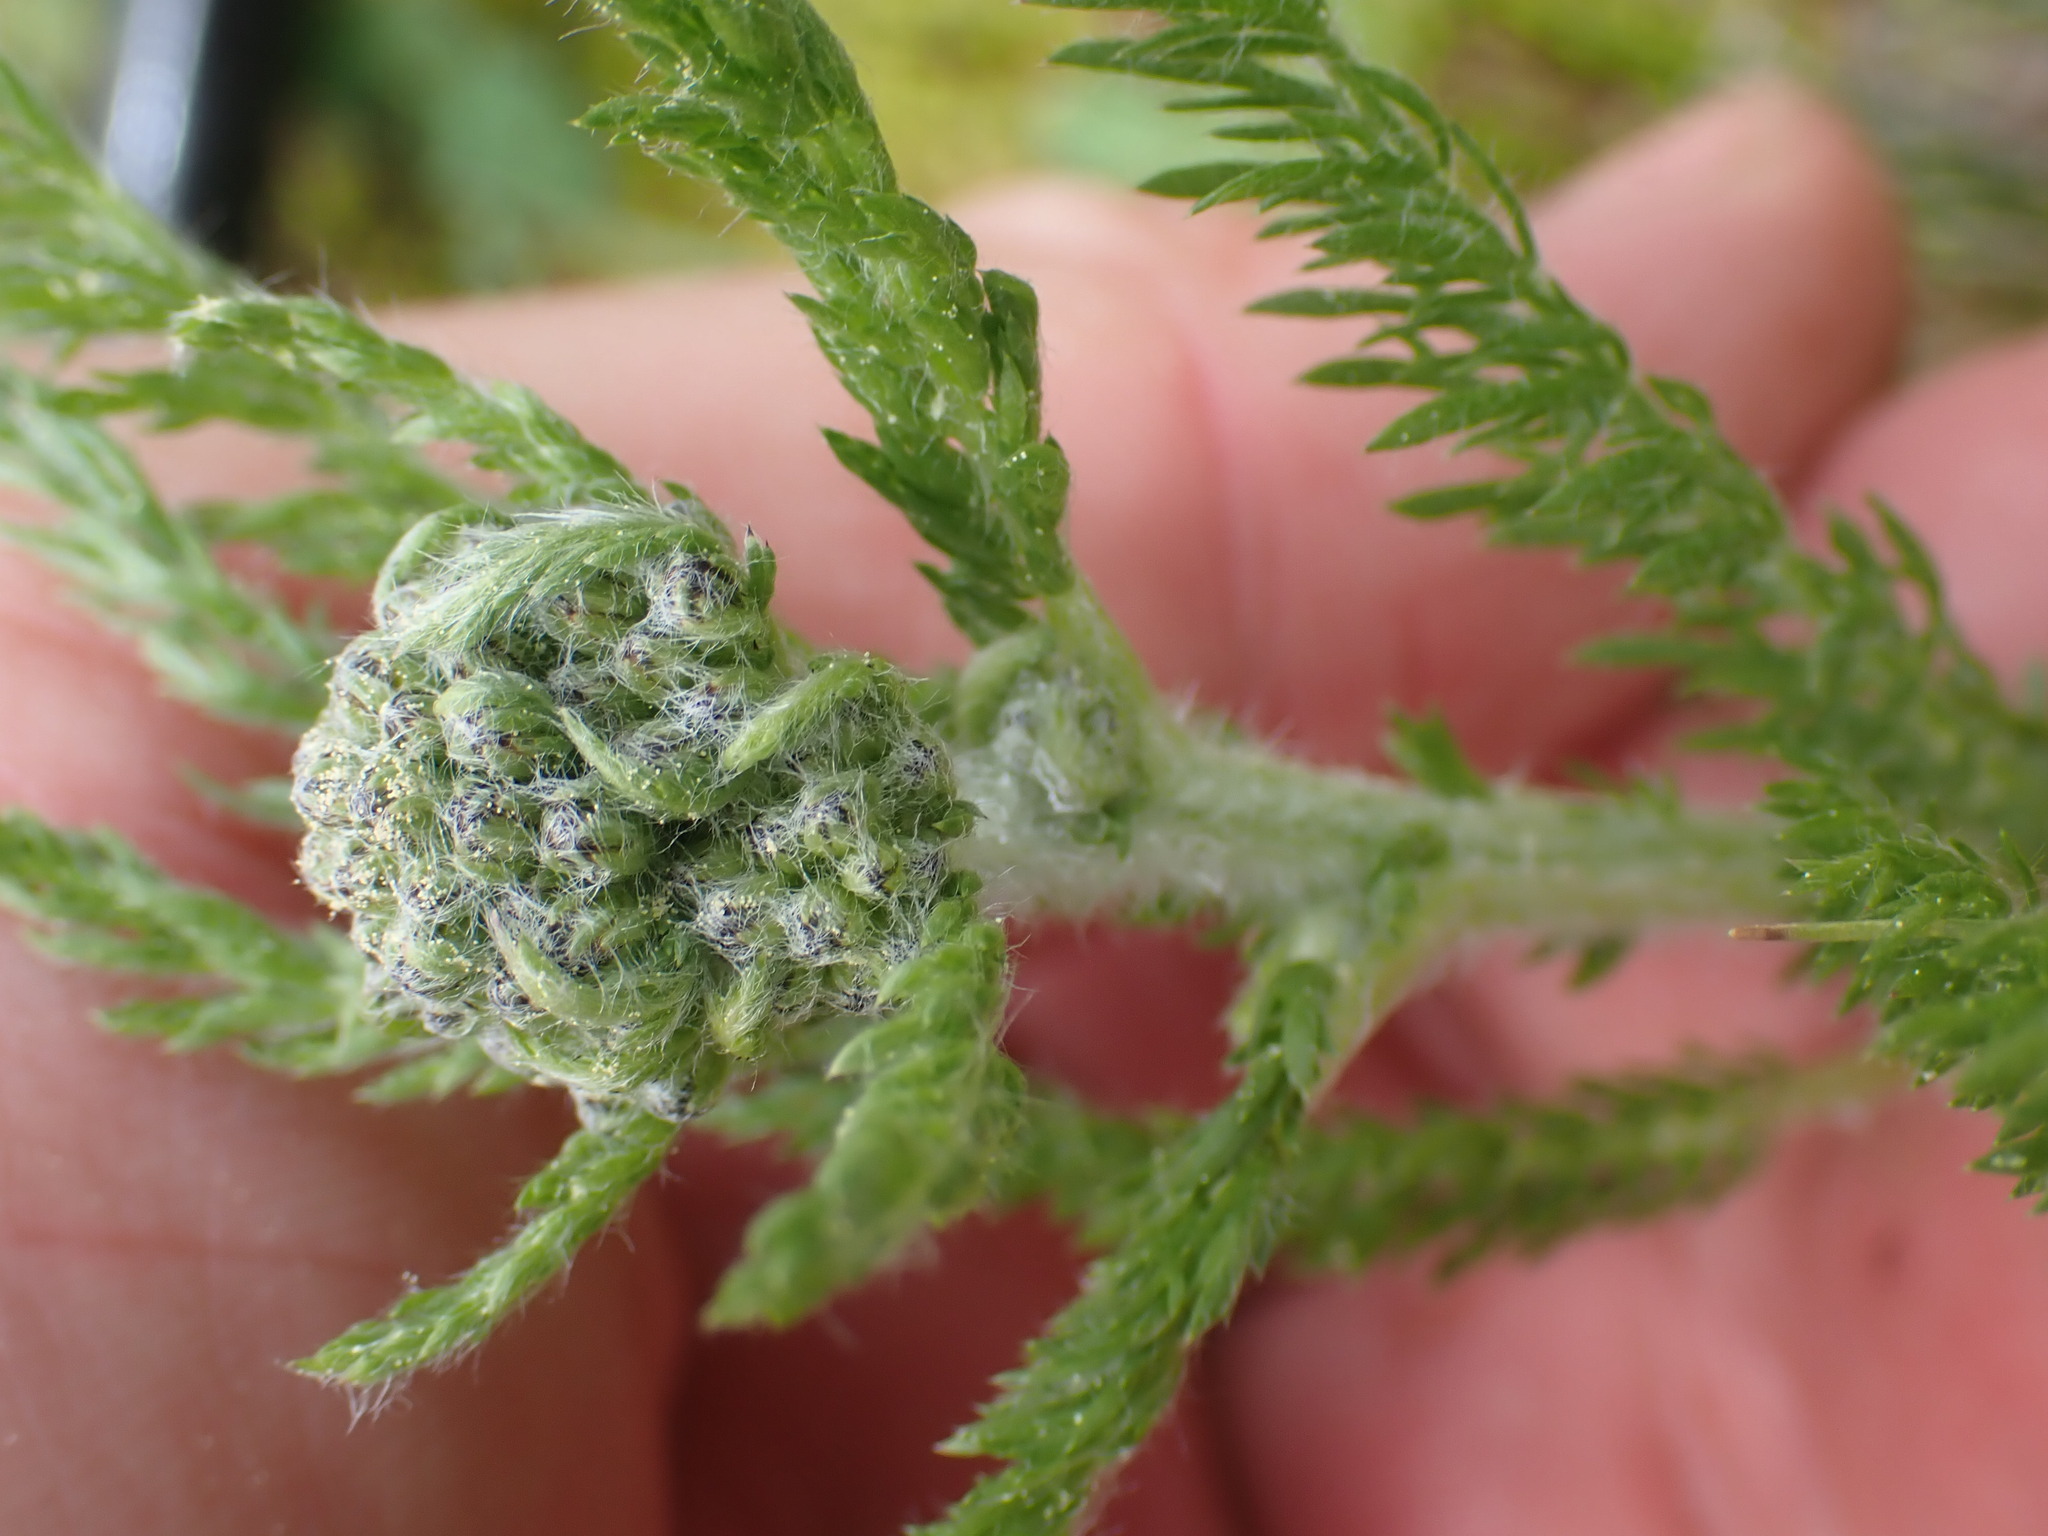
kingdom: Plantae
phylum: Tracheophyta
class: Magnoliopsida
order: Asterales
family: Asteraceae
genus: Achillea
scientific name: Achillea millefolium
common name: Yarrow
